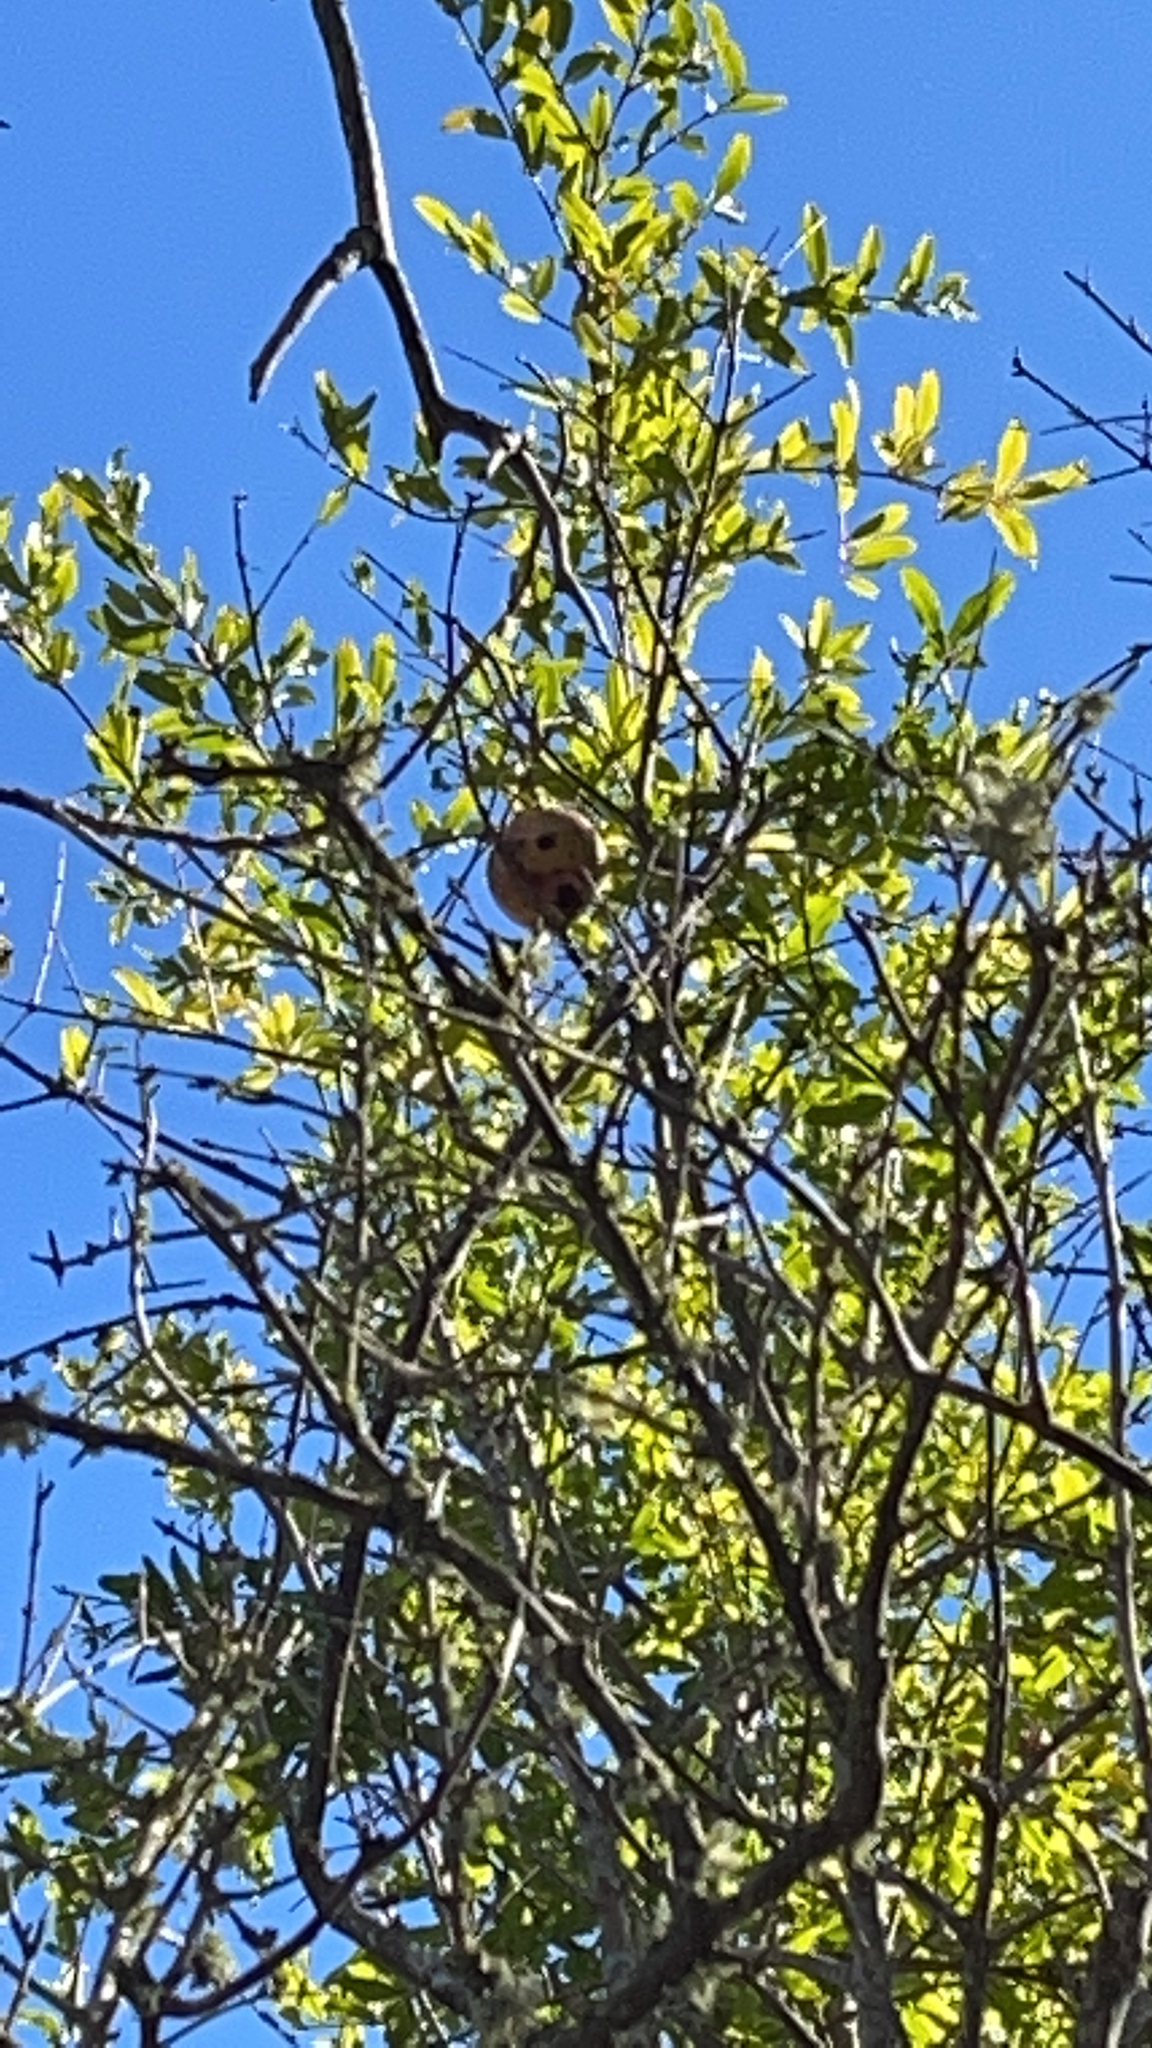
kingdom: Plantae
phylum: Tracheophyta
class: Magnoliopsida
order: Myrtales
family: Lythraceae
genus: Punica
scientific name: Punica granatum
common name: Pomegranate
